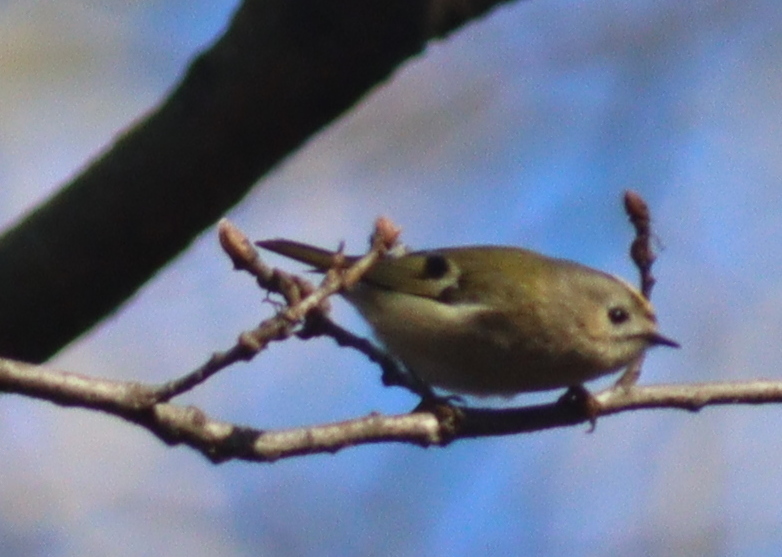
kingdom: Animalia
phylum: Chordata
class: Aves
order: Passeriformes
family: Regulidae
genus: Regulus
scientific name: Regulus regulus
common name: Goldcrest
